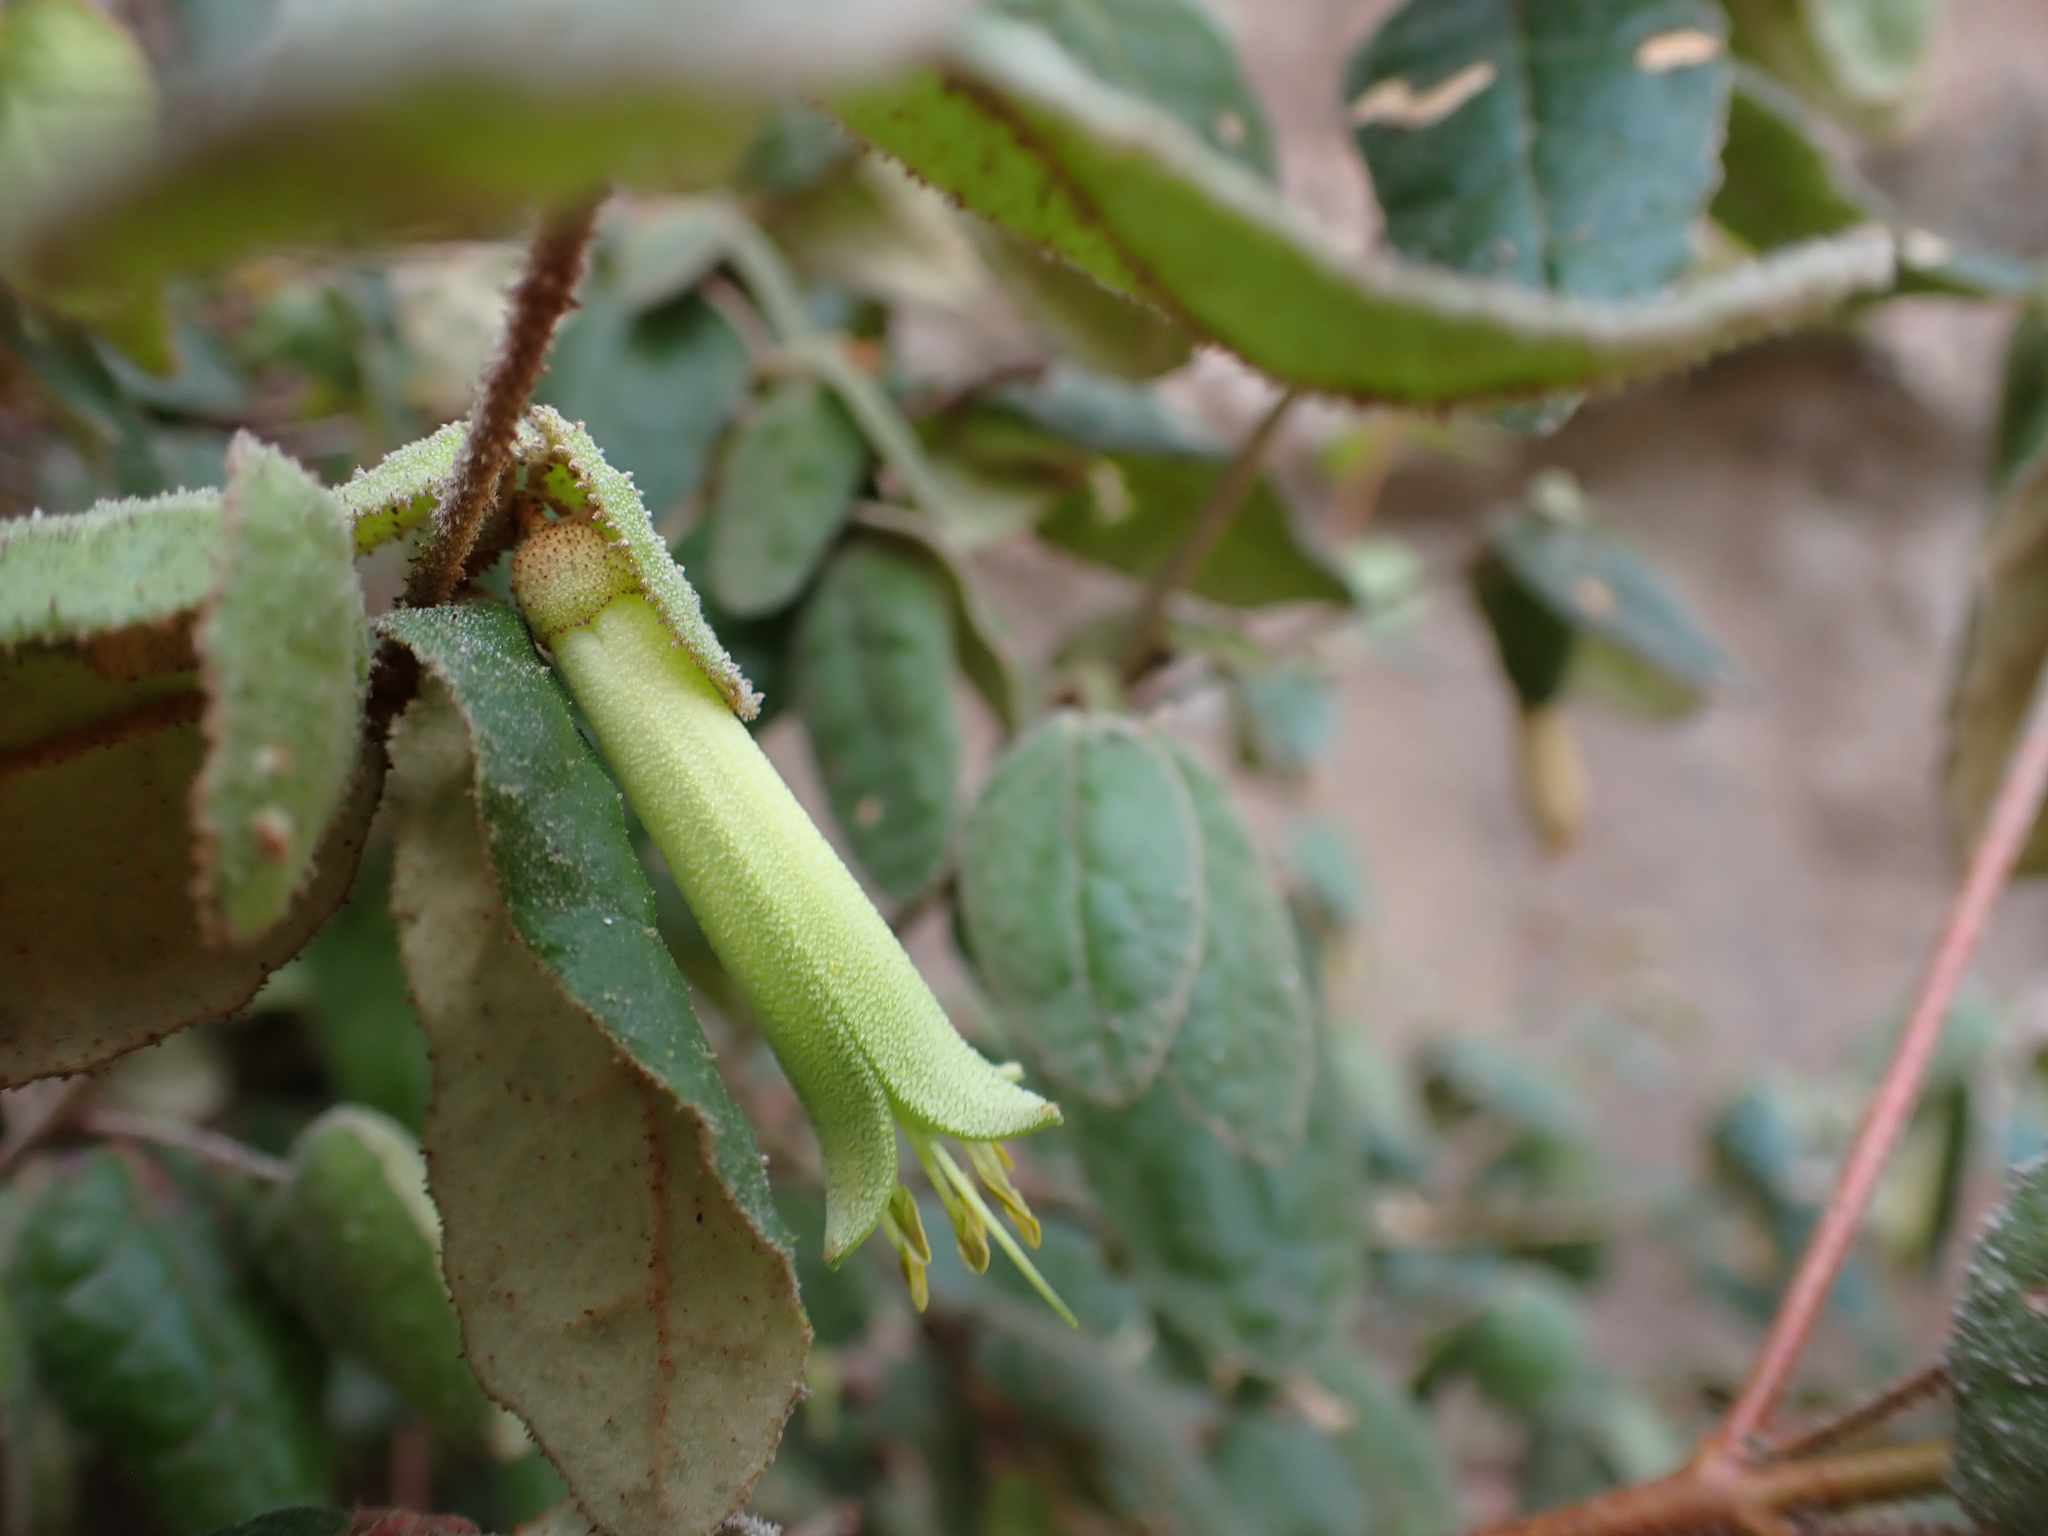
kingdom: Plantae
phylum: Tracheophyta
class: Magnoliopsida
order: Sapindales
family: Rutaceae
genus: Correa
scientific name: Correa reflexa
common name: Common correa
